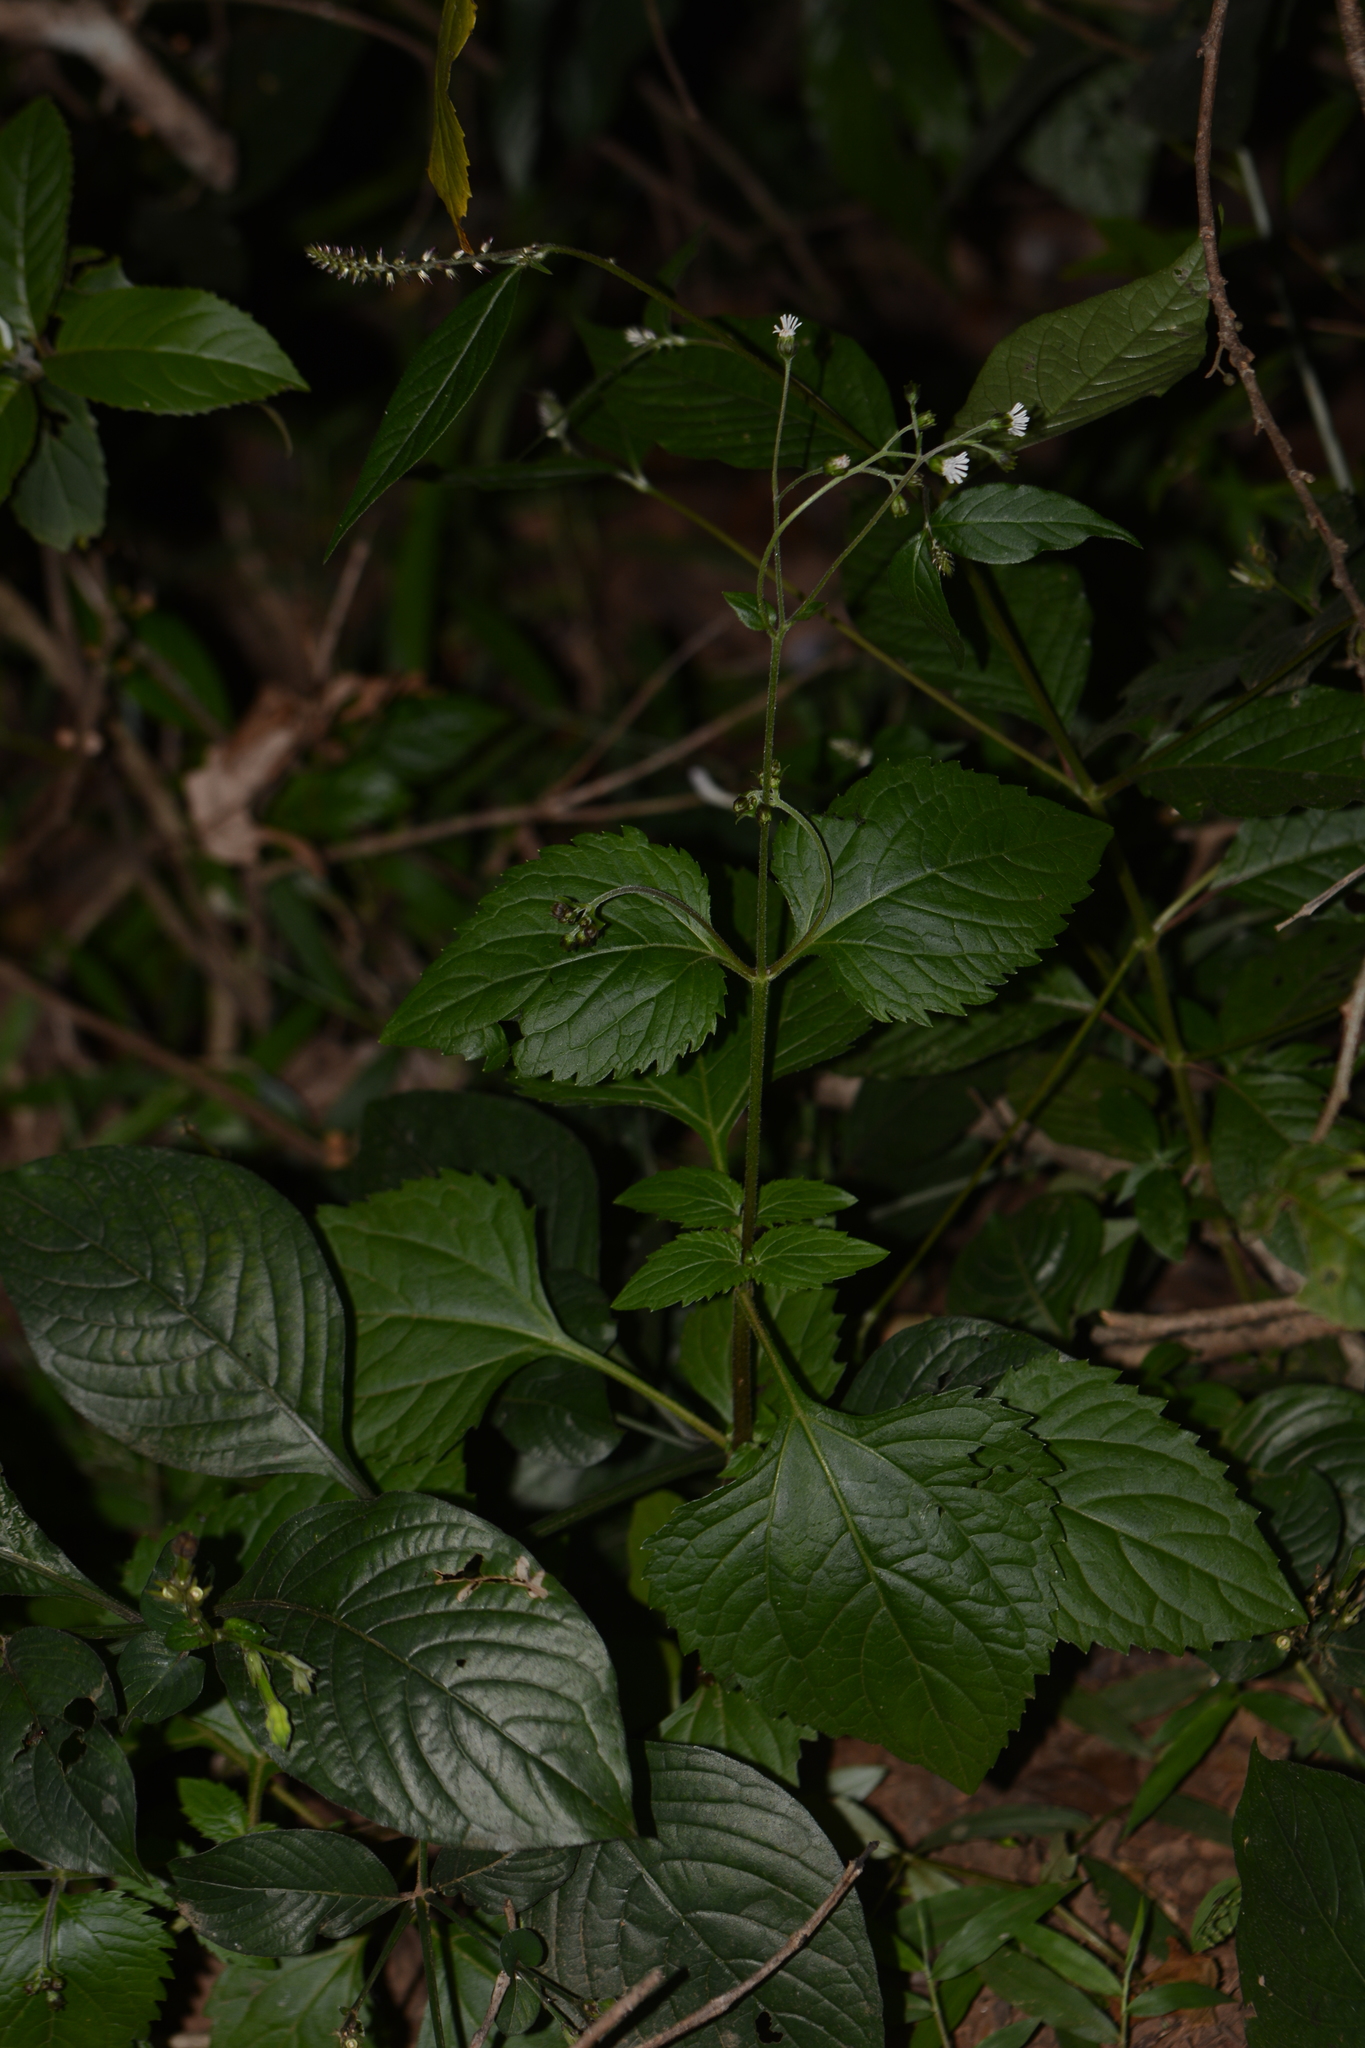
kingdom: Plantae
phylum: Tracheophyta
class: Magnoliopsida
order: Asterales
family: Asteraceae
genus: Adenostemma
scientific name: Adenostemma lavenia
